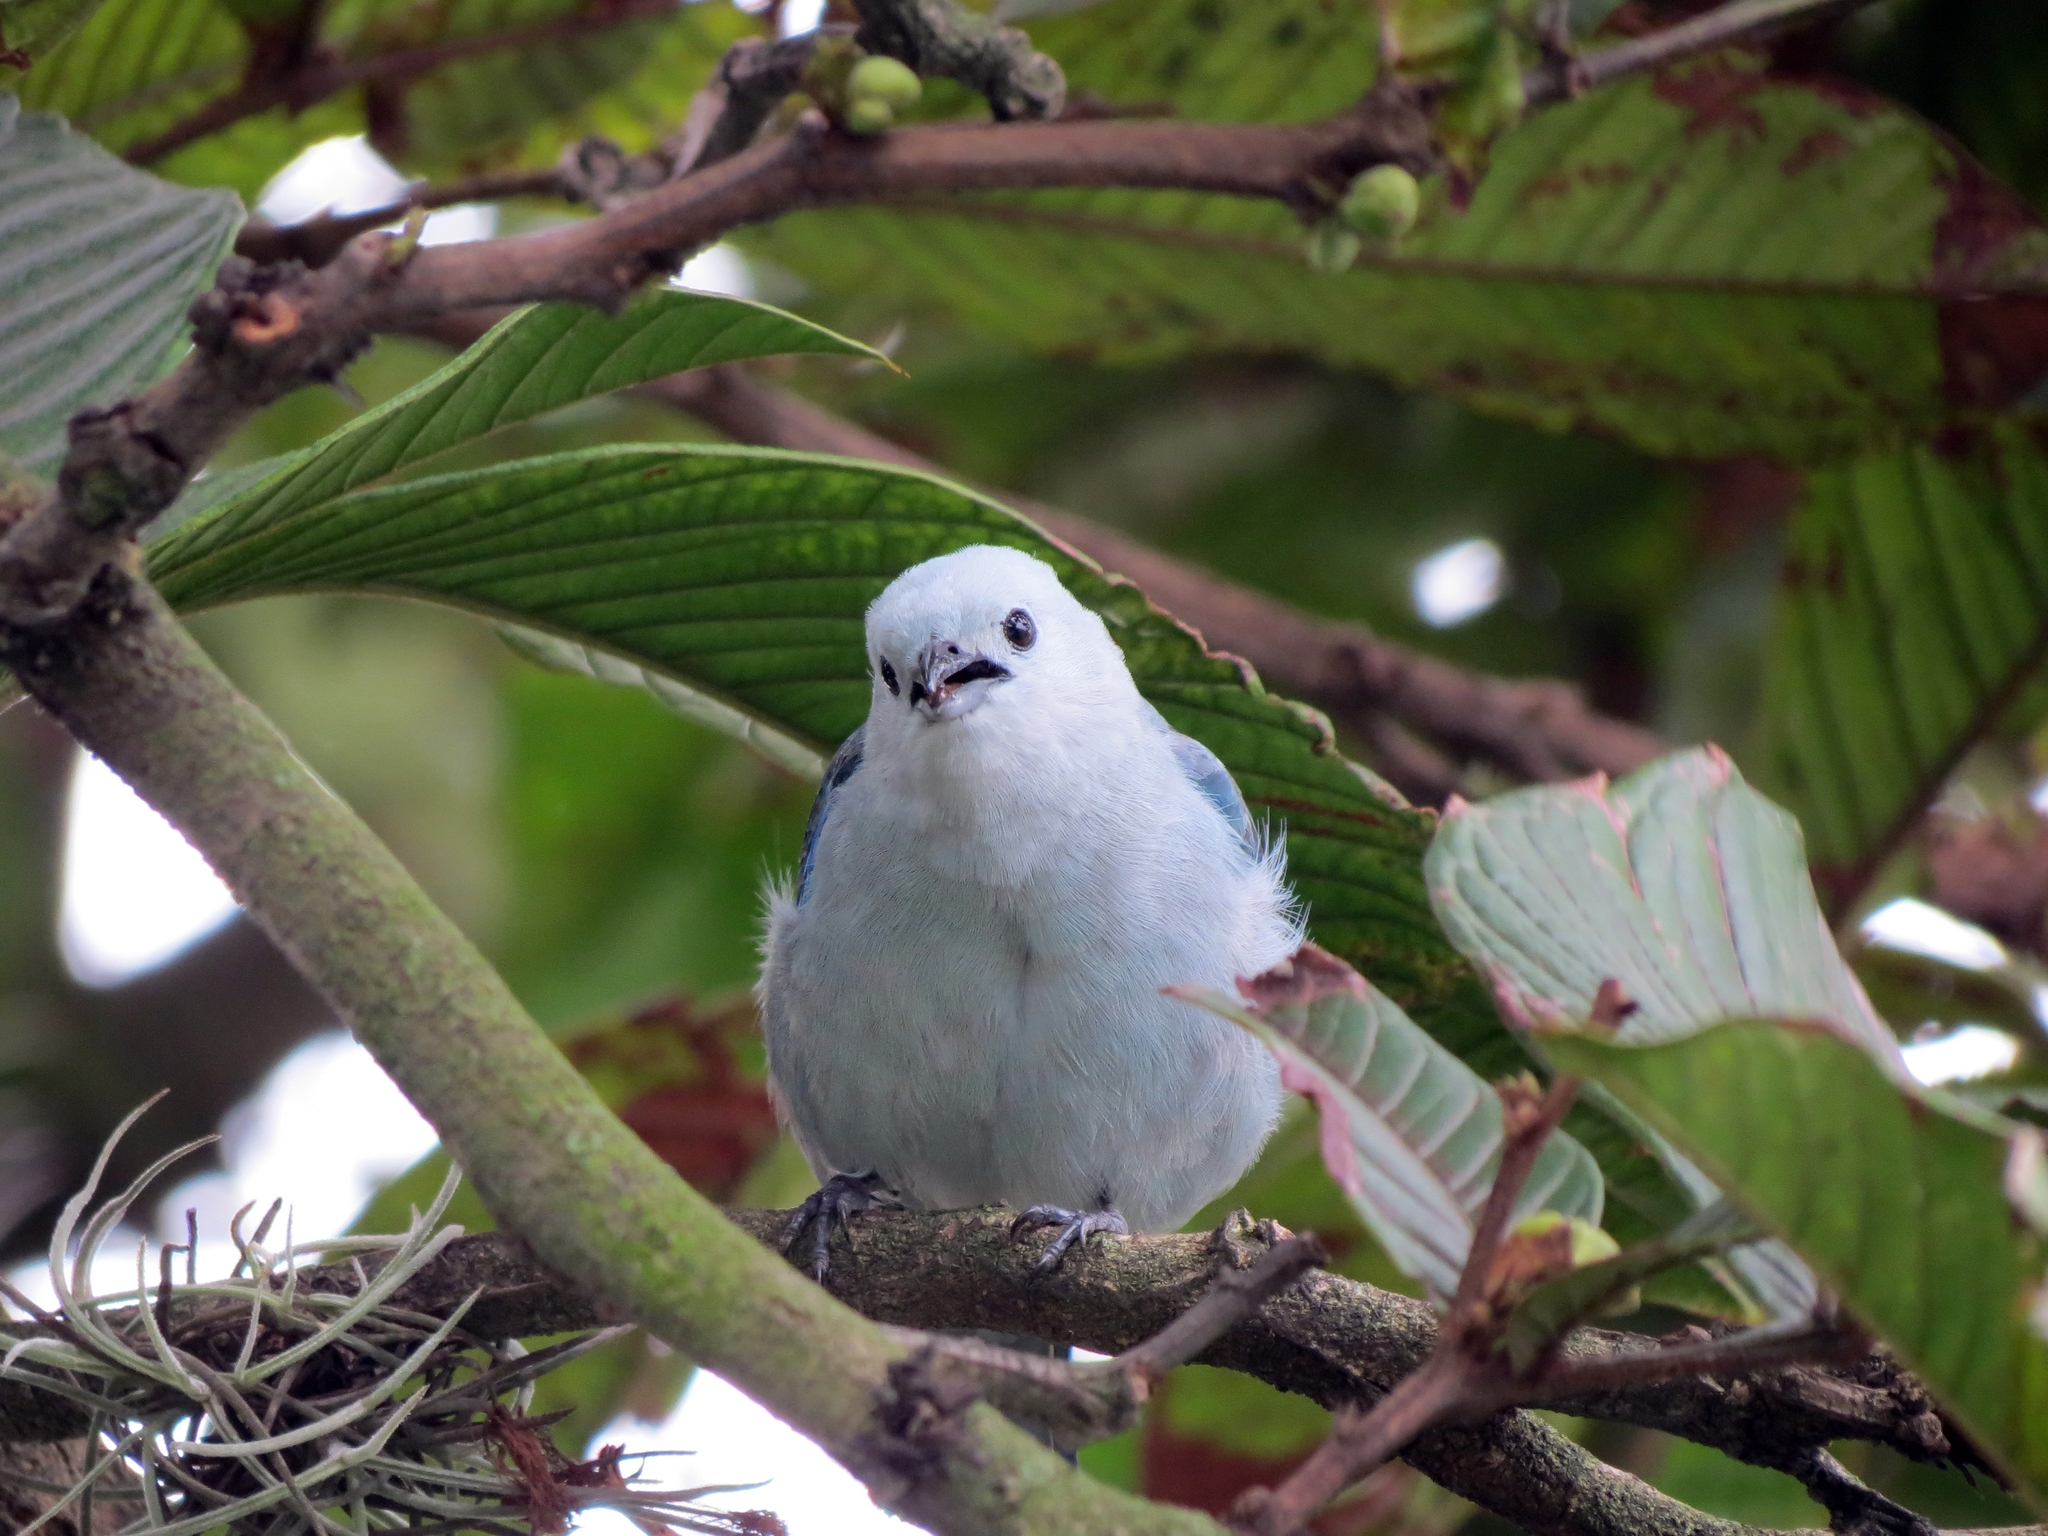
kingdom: Animalia
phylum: Chordata
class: Aves
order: Passeriformes
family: Thraupidae
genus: Thraupis
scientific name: Thraupis episcopus
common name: Blue-grey tanager
